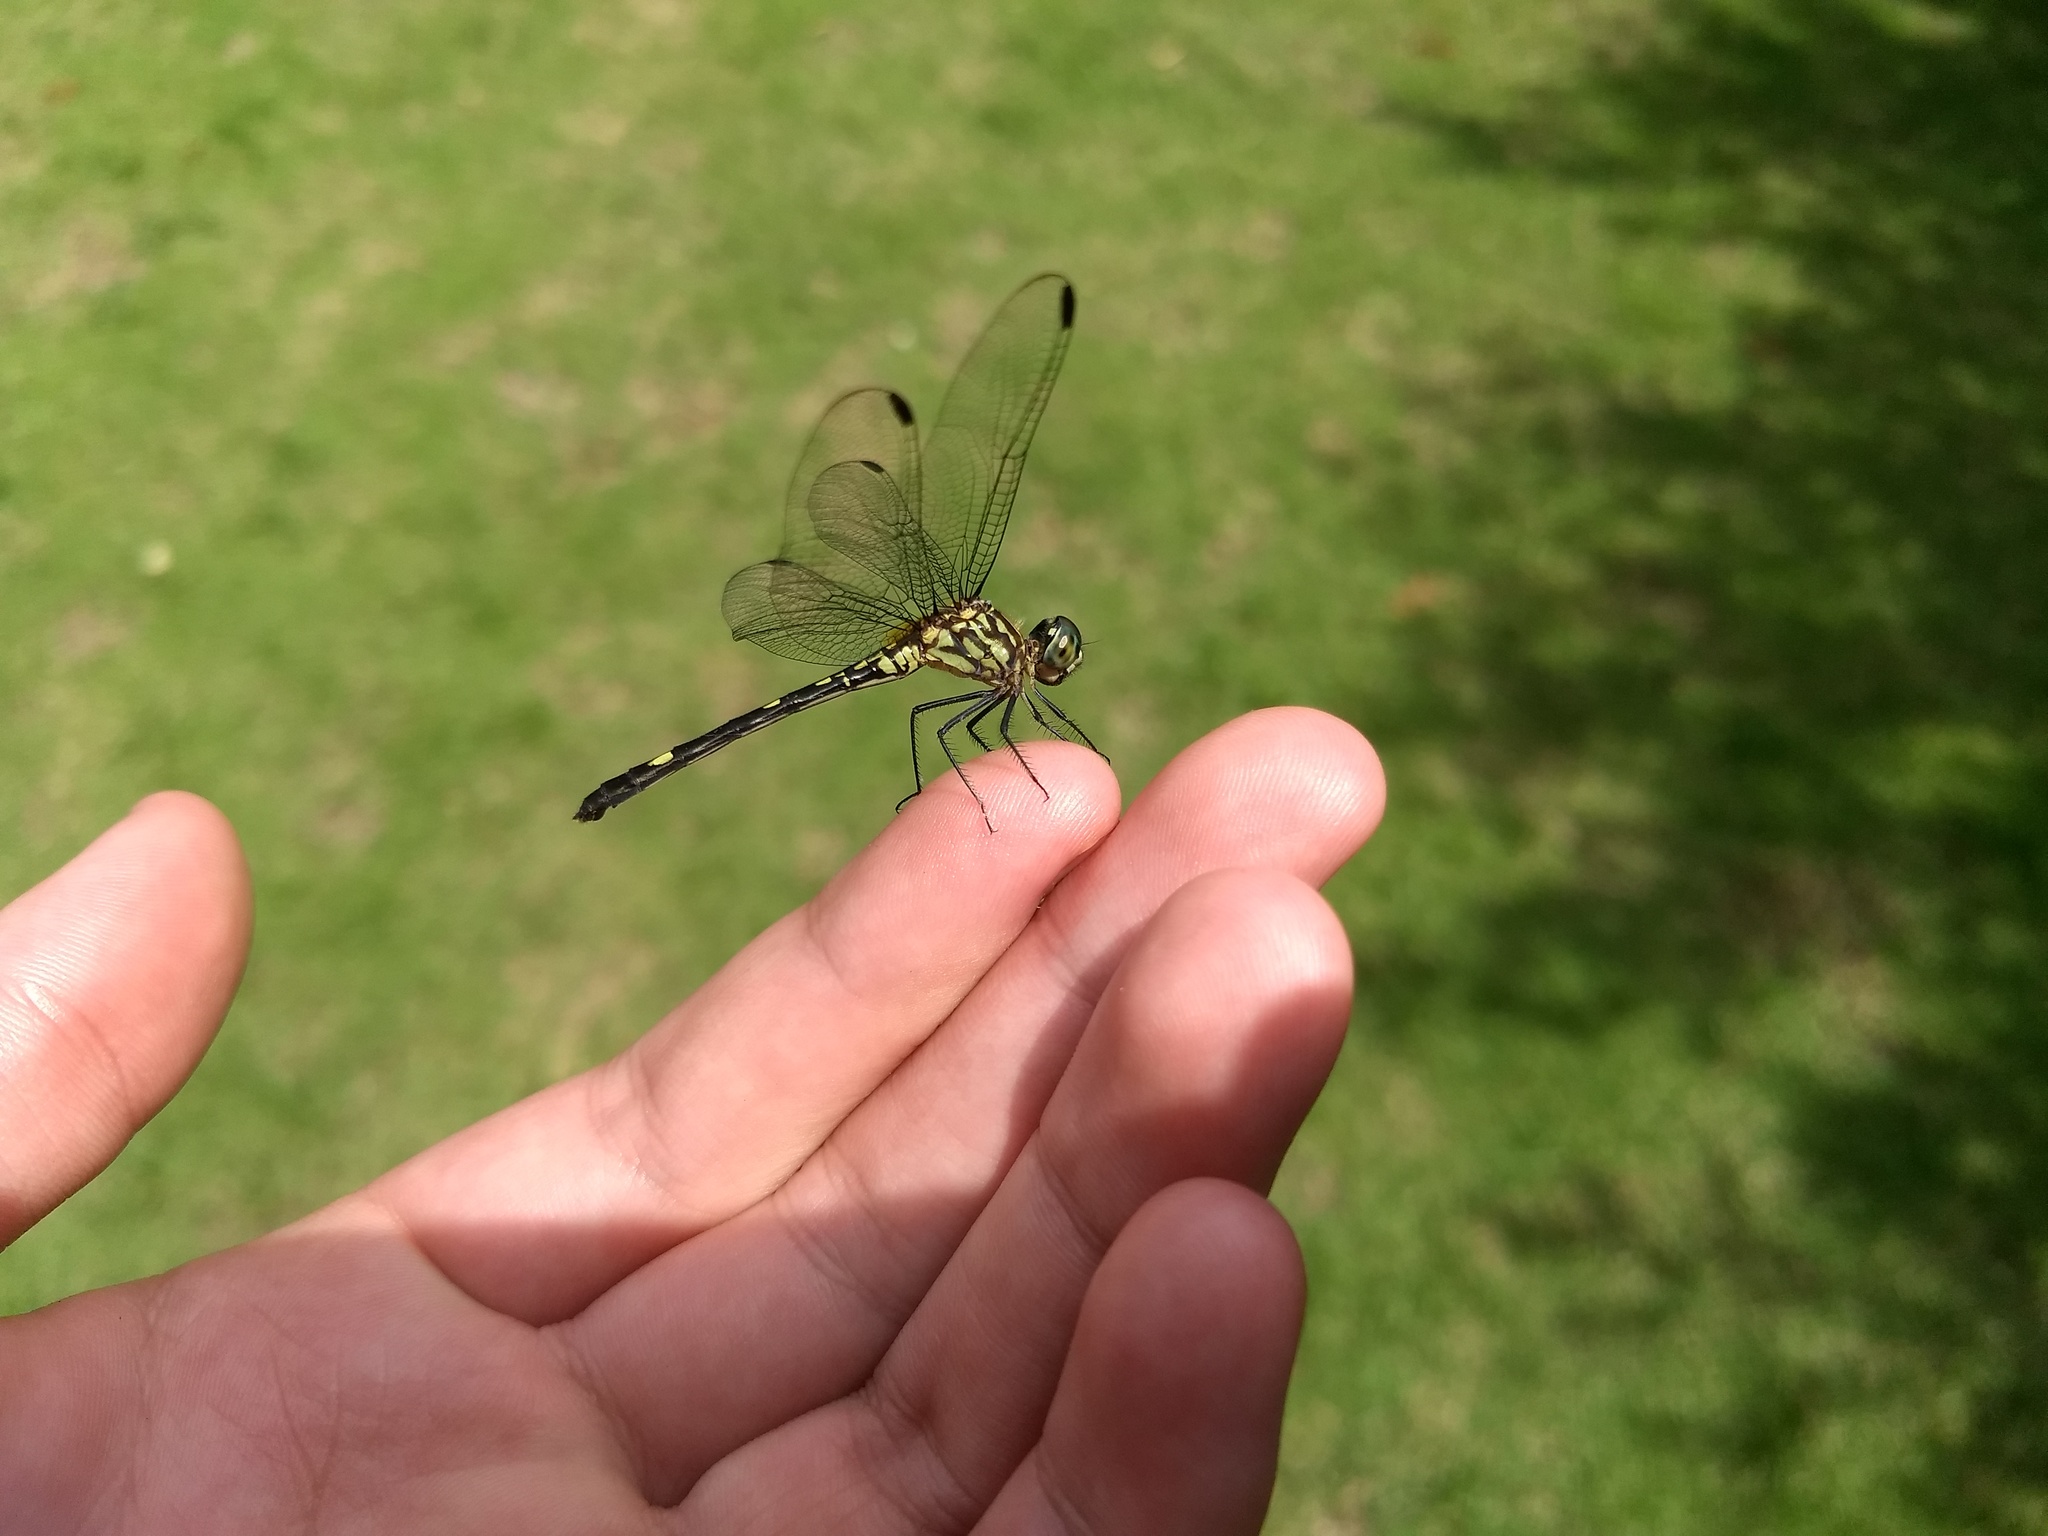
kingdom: Animalia
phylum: Arthropoda
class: Insecta
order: Odonata
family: Libellulidae
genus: Dythemis
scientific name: Dythemis nigra
